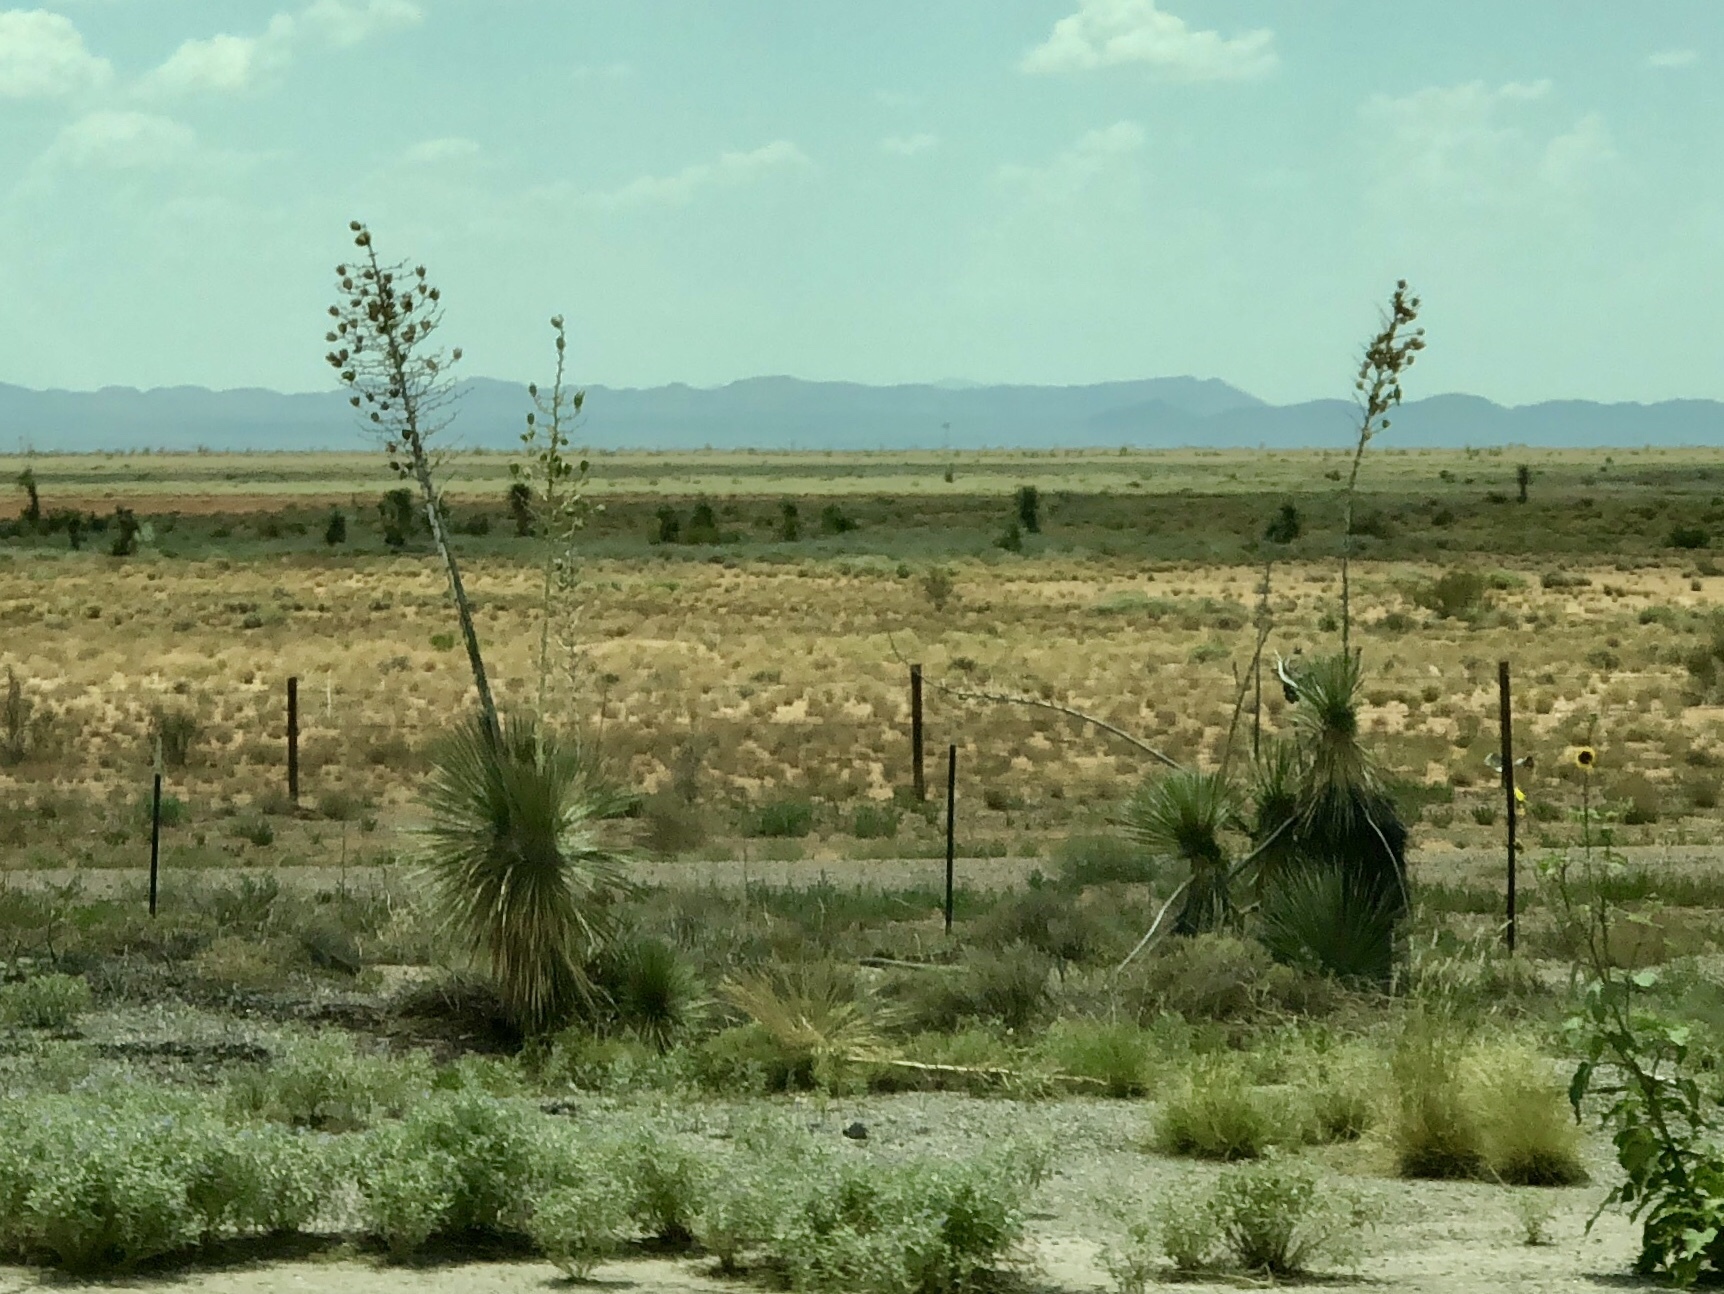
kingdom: Plantae
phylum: Tracheophyta
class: Liliopsida
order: Asparagales
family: Asparagaceae
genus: Yucca
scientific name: Yucca elata
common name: Palmella
